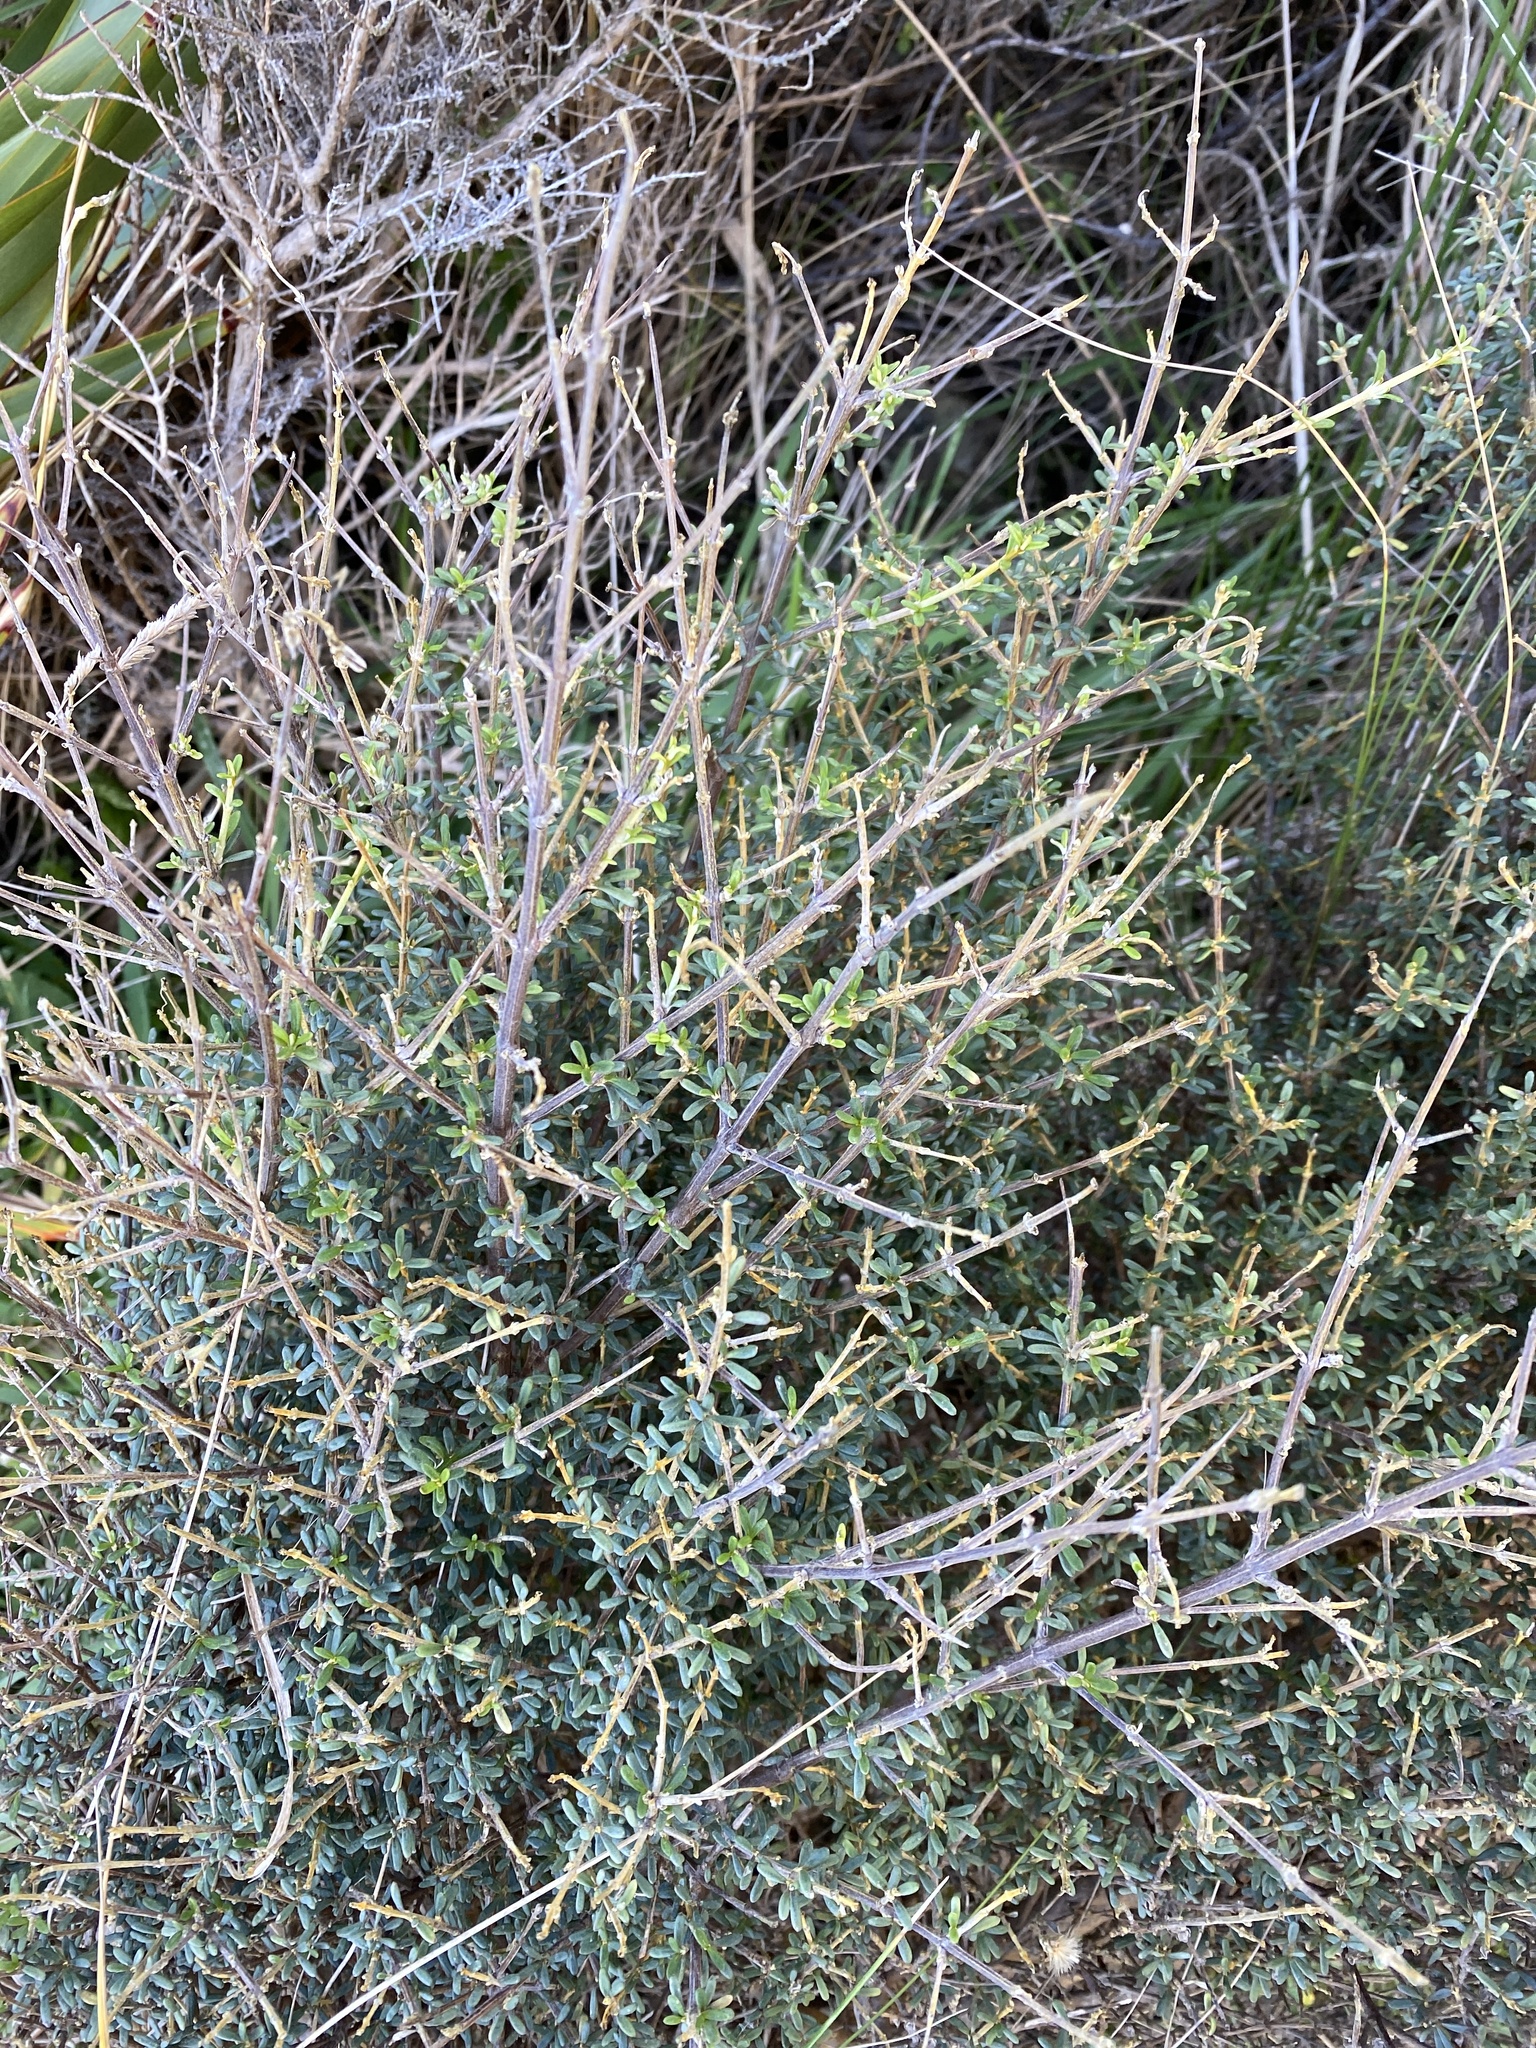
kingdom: Plantae
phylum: Tracheophyta
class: Magnoliopsida
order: Asterales
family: Asteraceae
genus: Olearia
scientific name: Olearia solandri
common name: Coastal daisybush
